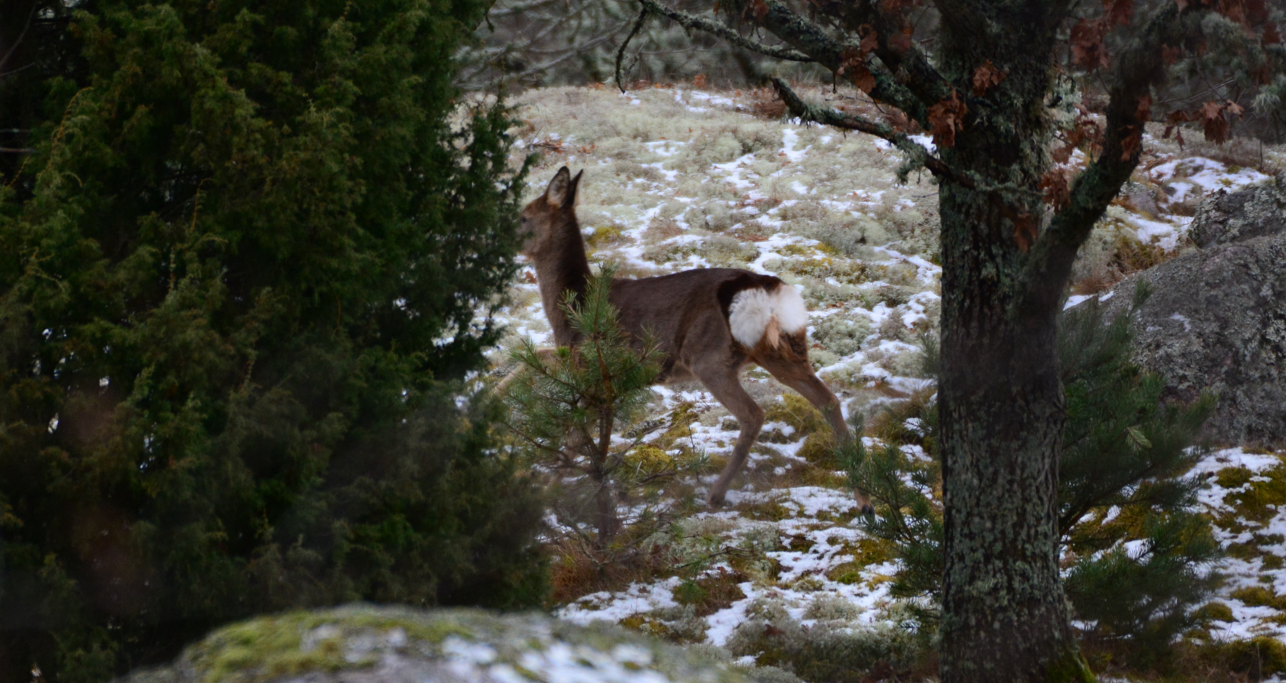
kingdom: Animalia
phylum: Chordata
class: Mammalia
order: Artiodactyla
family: Cervidae
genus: Capreolus
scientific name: Capreolus capreolus
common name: Western roe deer
